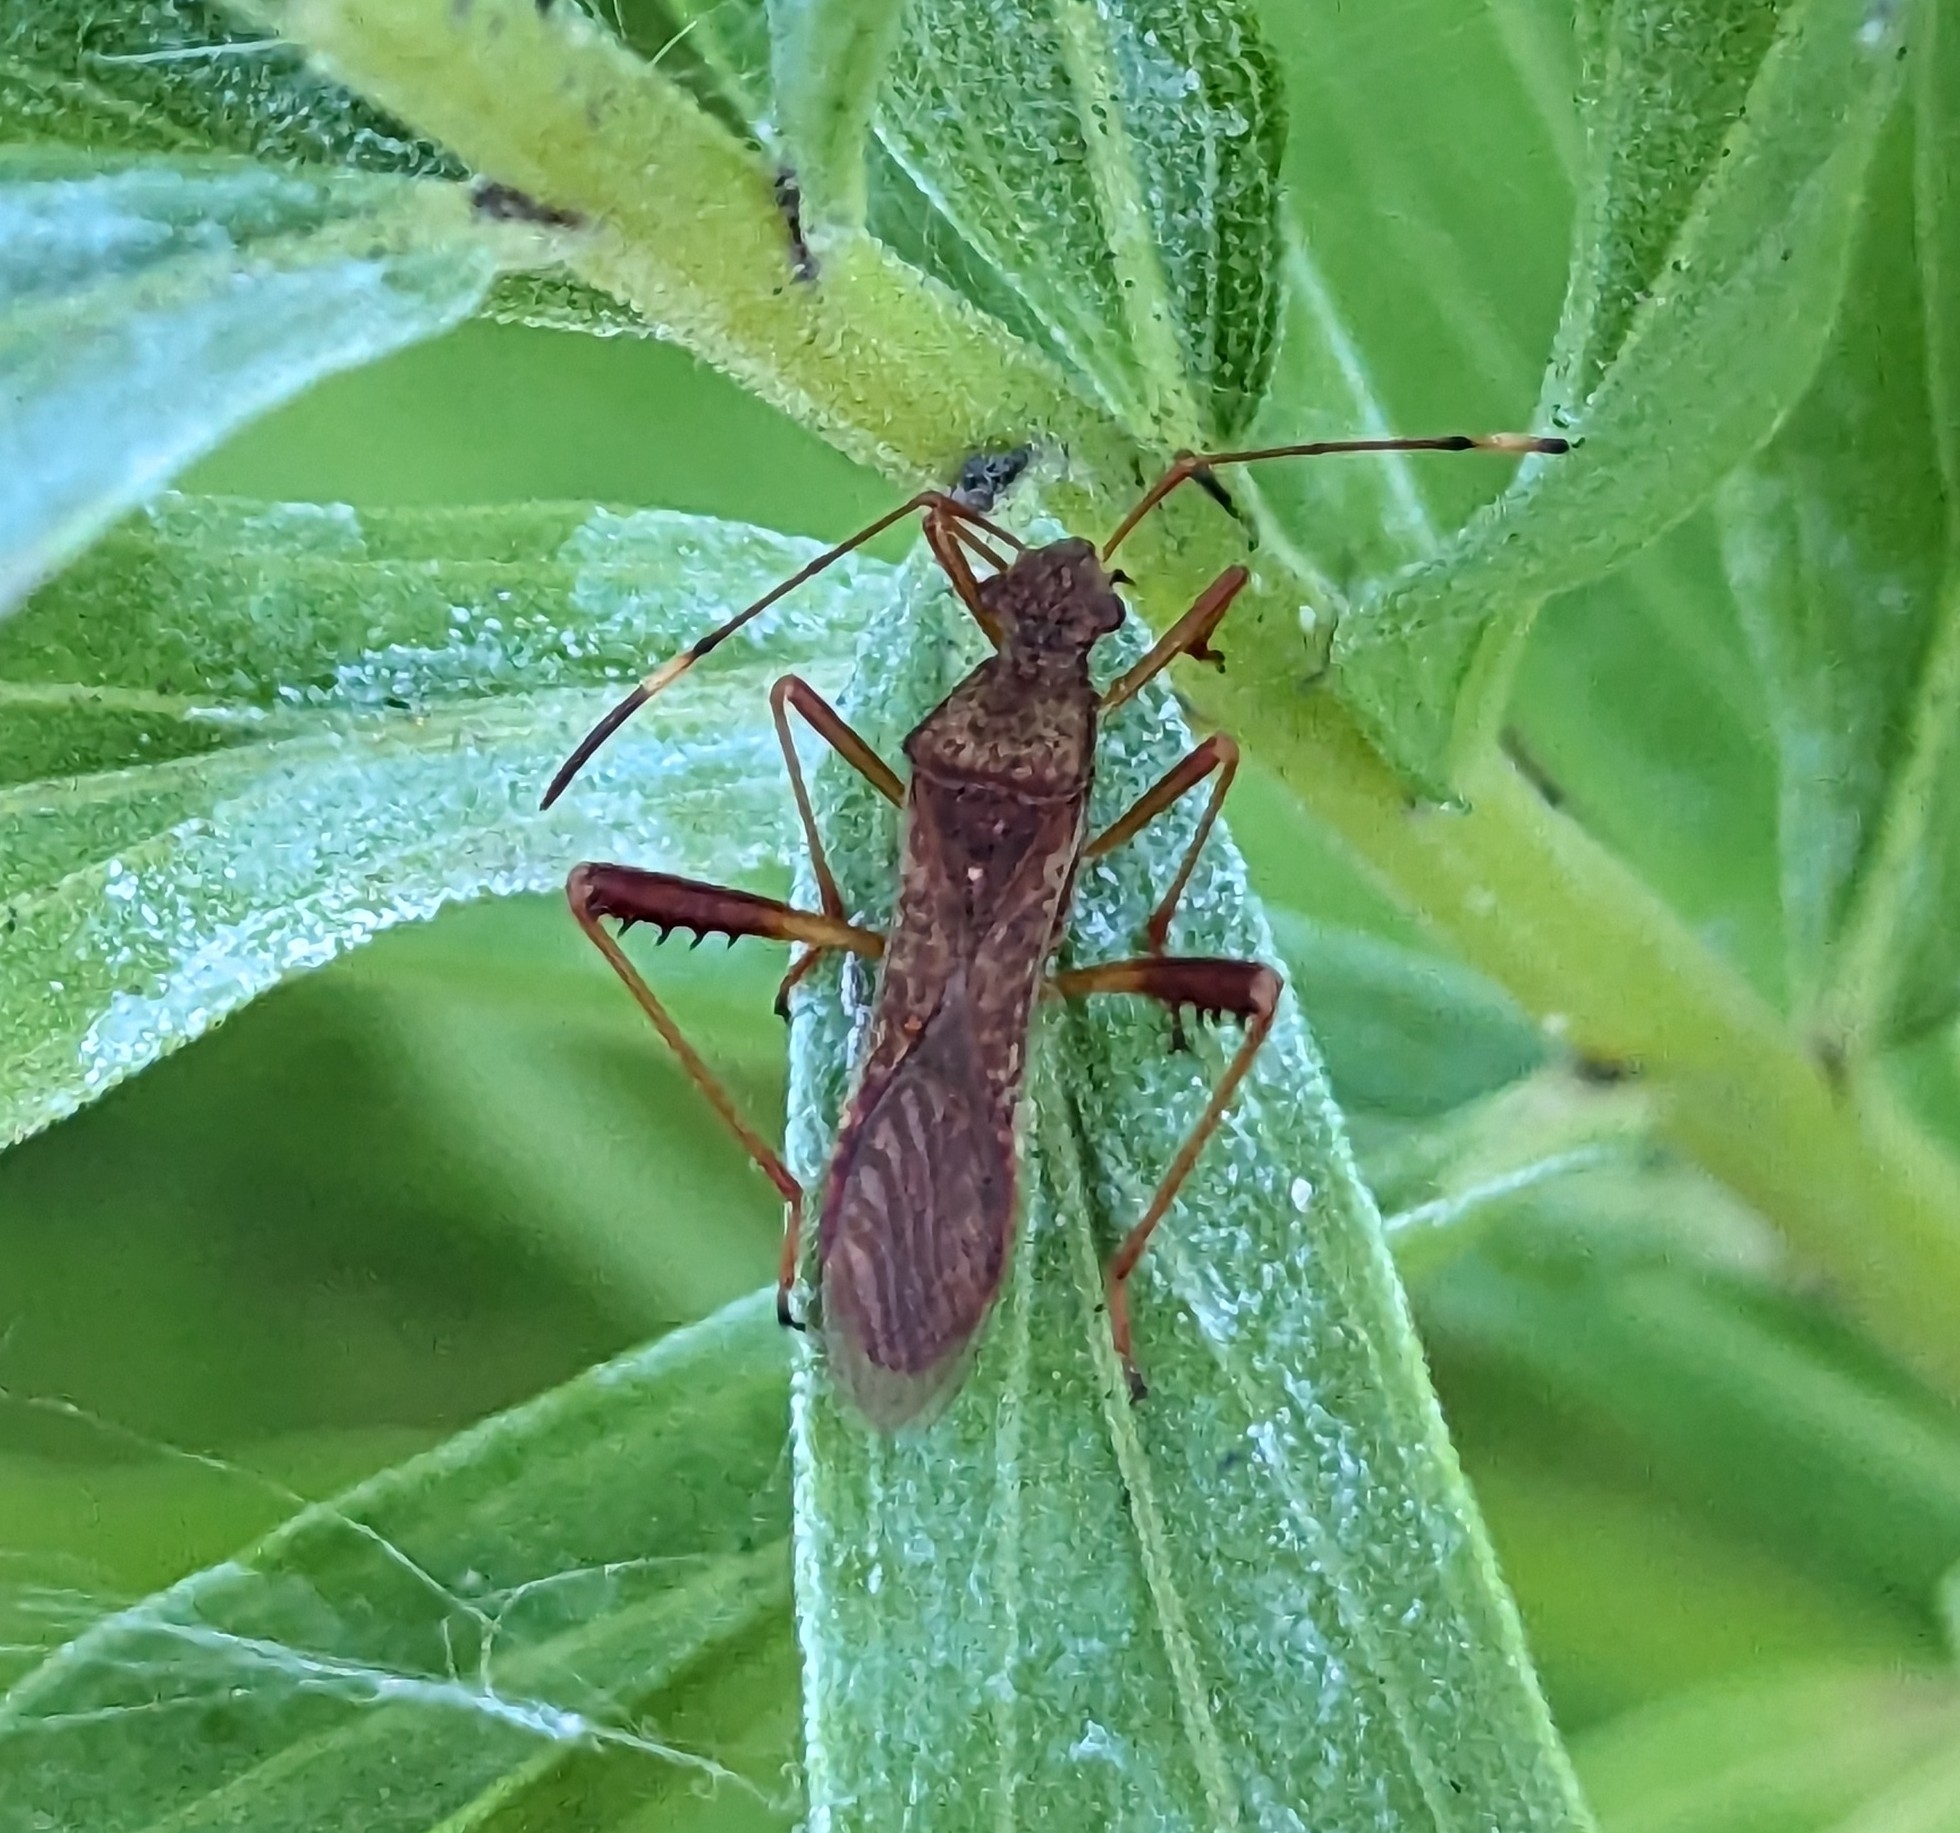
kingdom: Animalia
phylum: Arthropoda
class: Insecta
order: Hemiptera
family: Alydidae
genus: Megalotomus
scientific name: Megalotomus quinquespinosus
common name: Lupine bug
